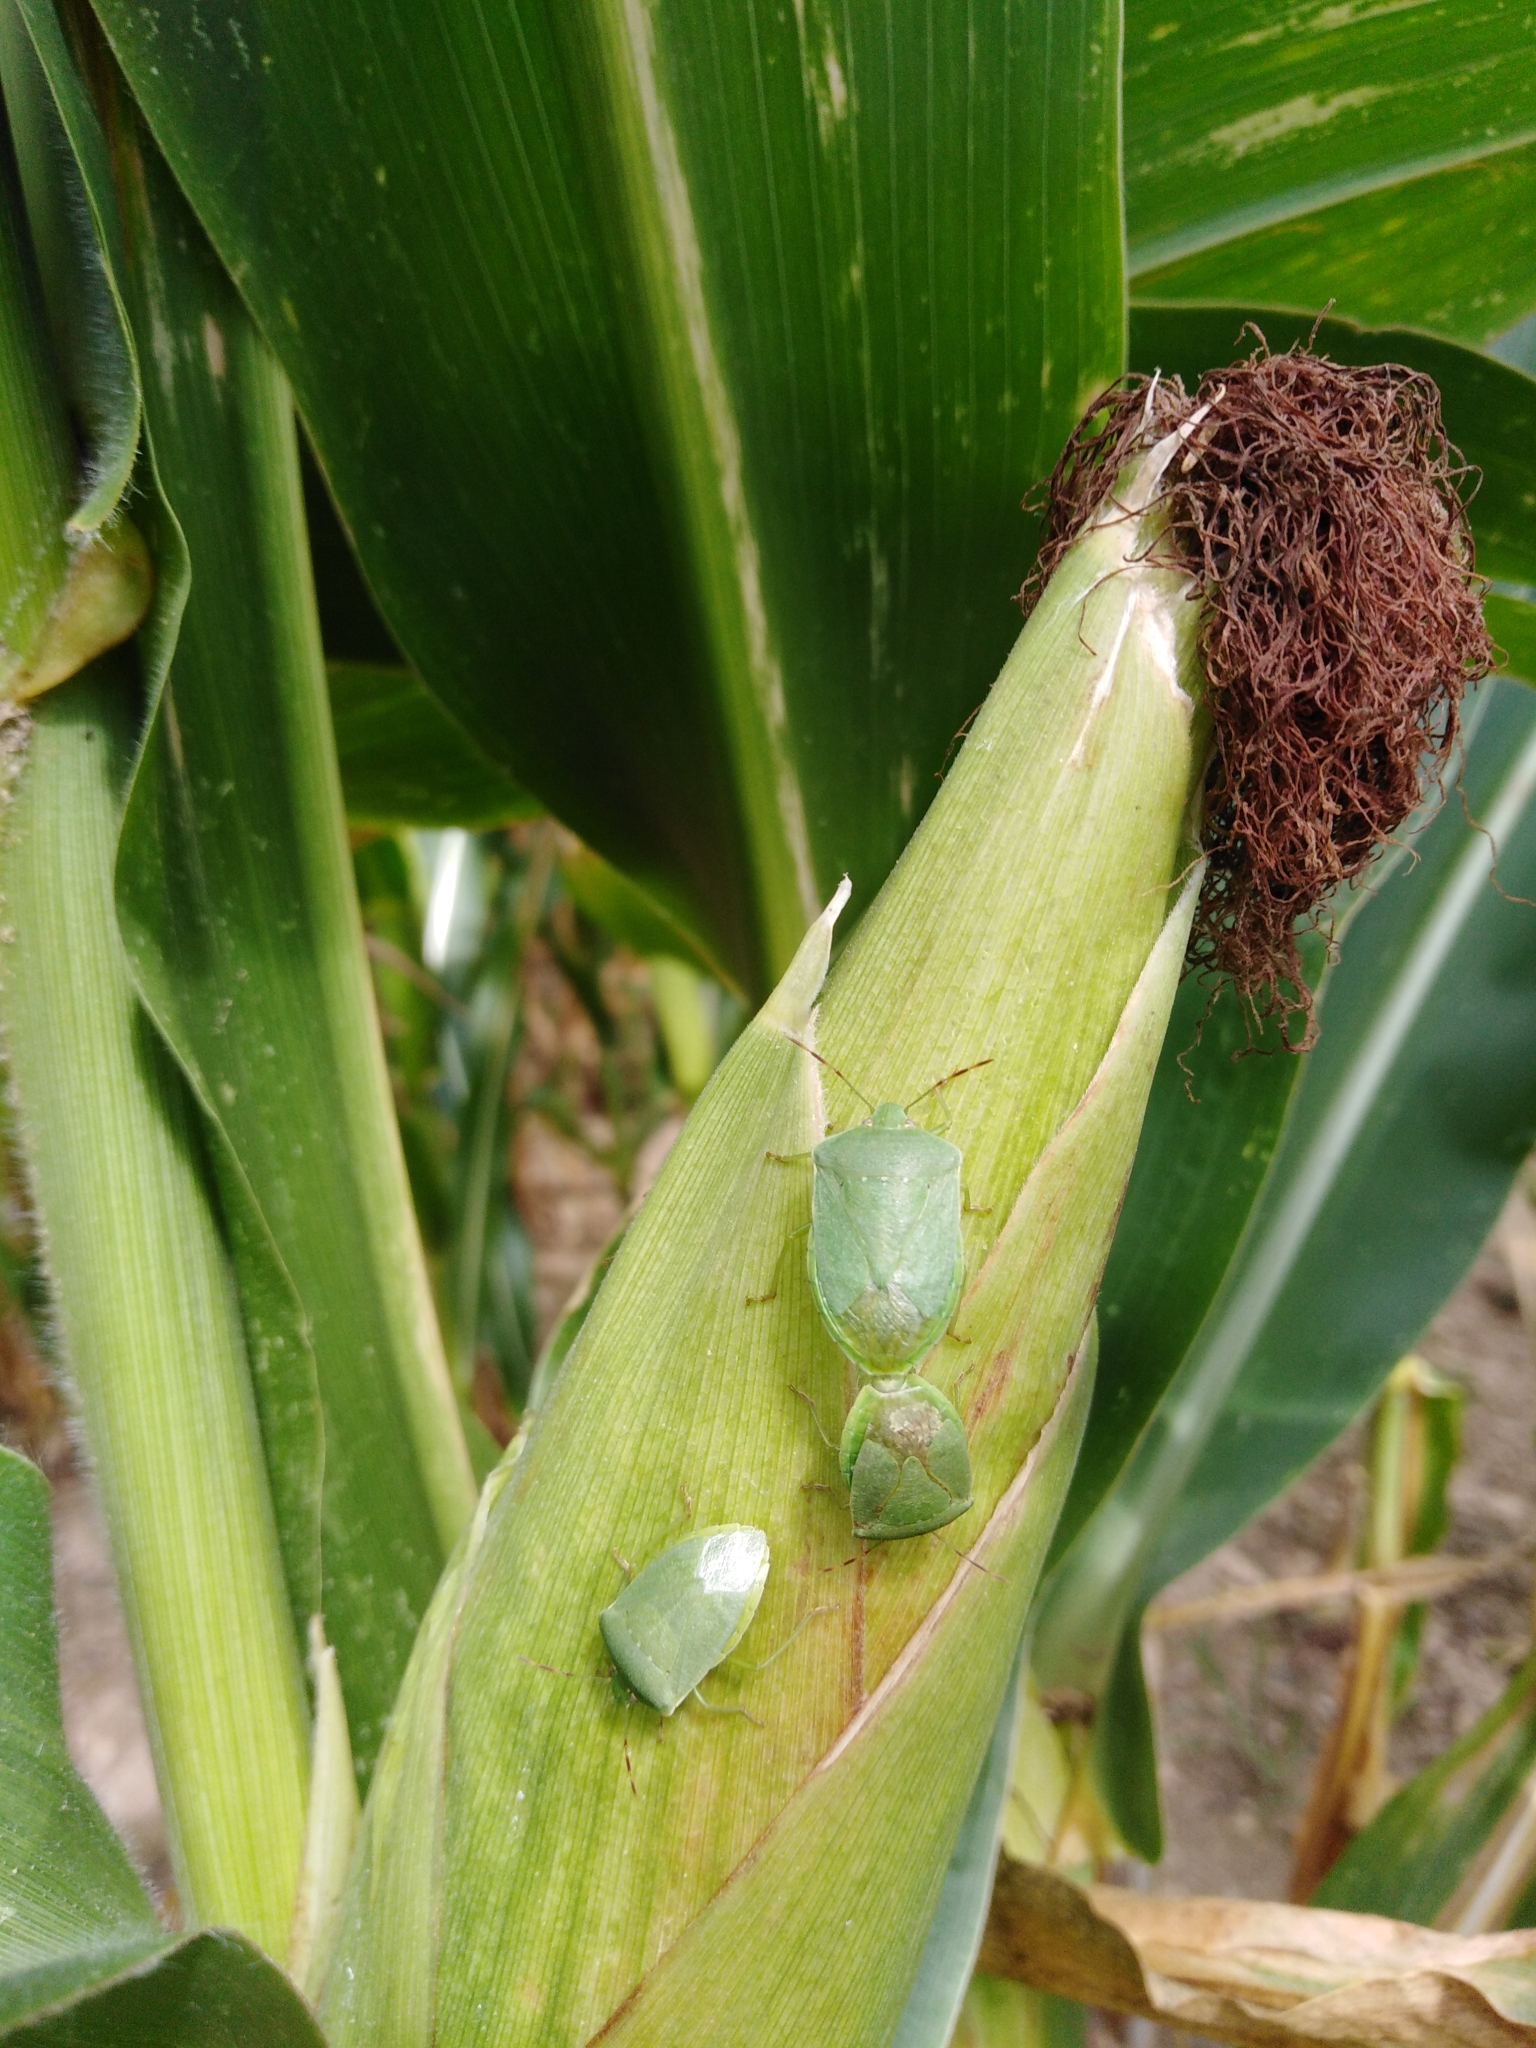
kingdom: Animalia
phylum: Arthropoda
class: Insecta
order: Hemiptera
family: Pentatomidae
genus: Nezara
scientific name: Nezara viridula
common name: Southern green stink bug
